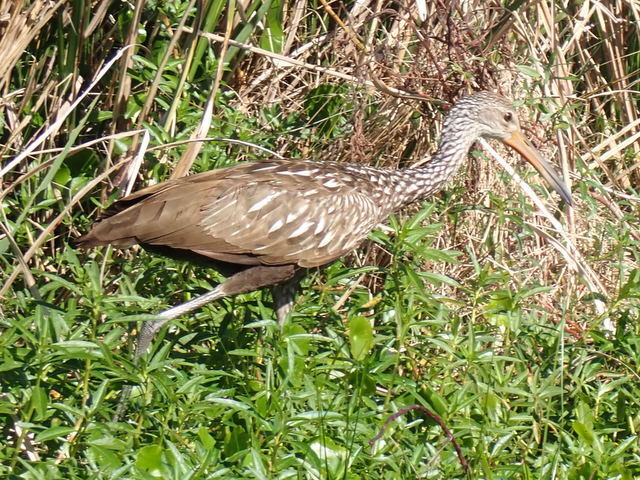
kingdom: Animalia
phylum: Chordata
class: Aves
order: Gruiformes
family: Aramidae
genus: Aramus
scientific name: Aramus guarauna
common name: Limpkin
